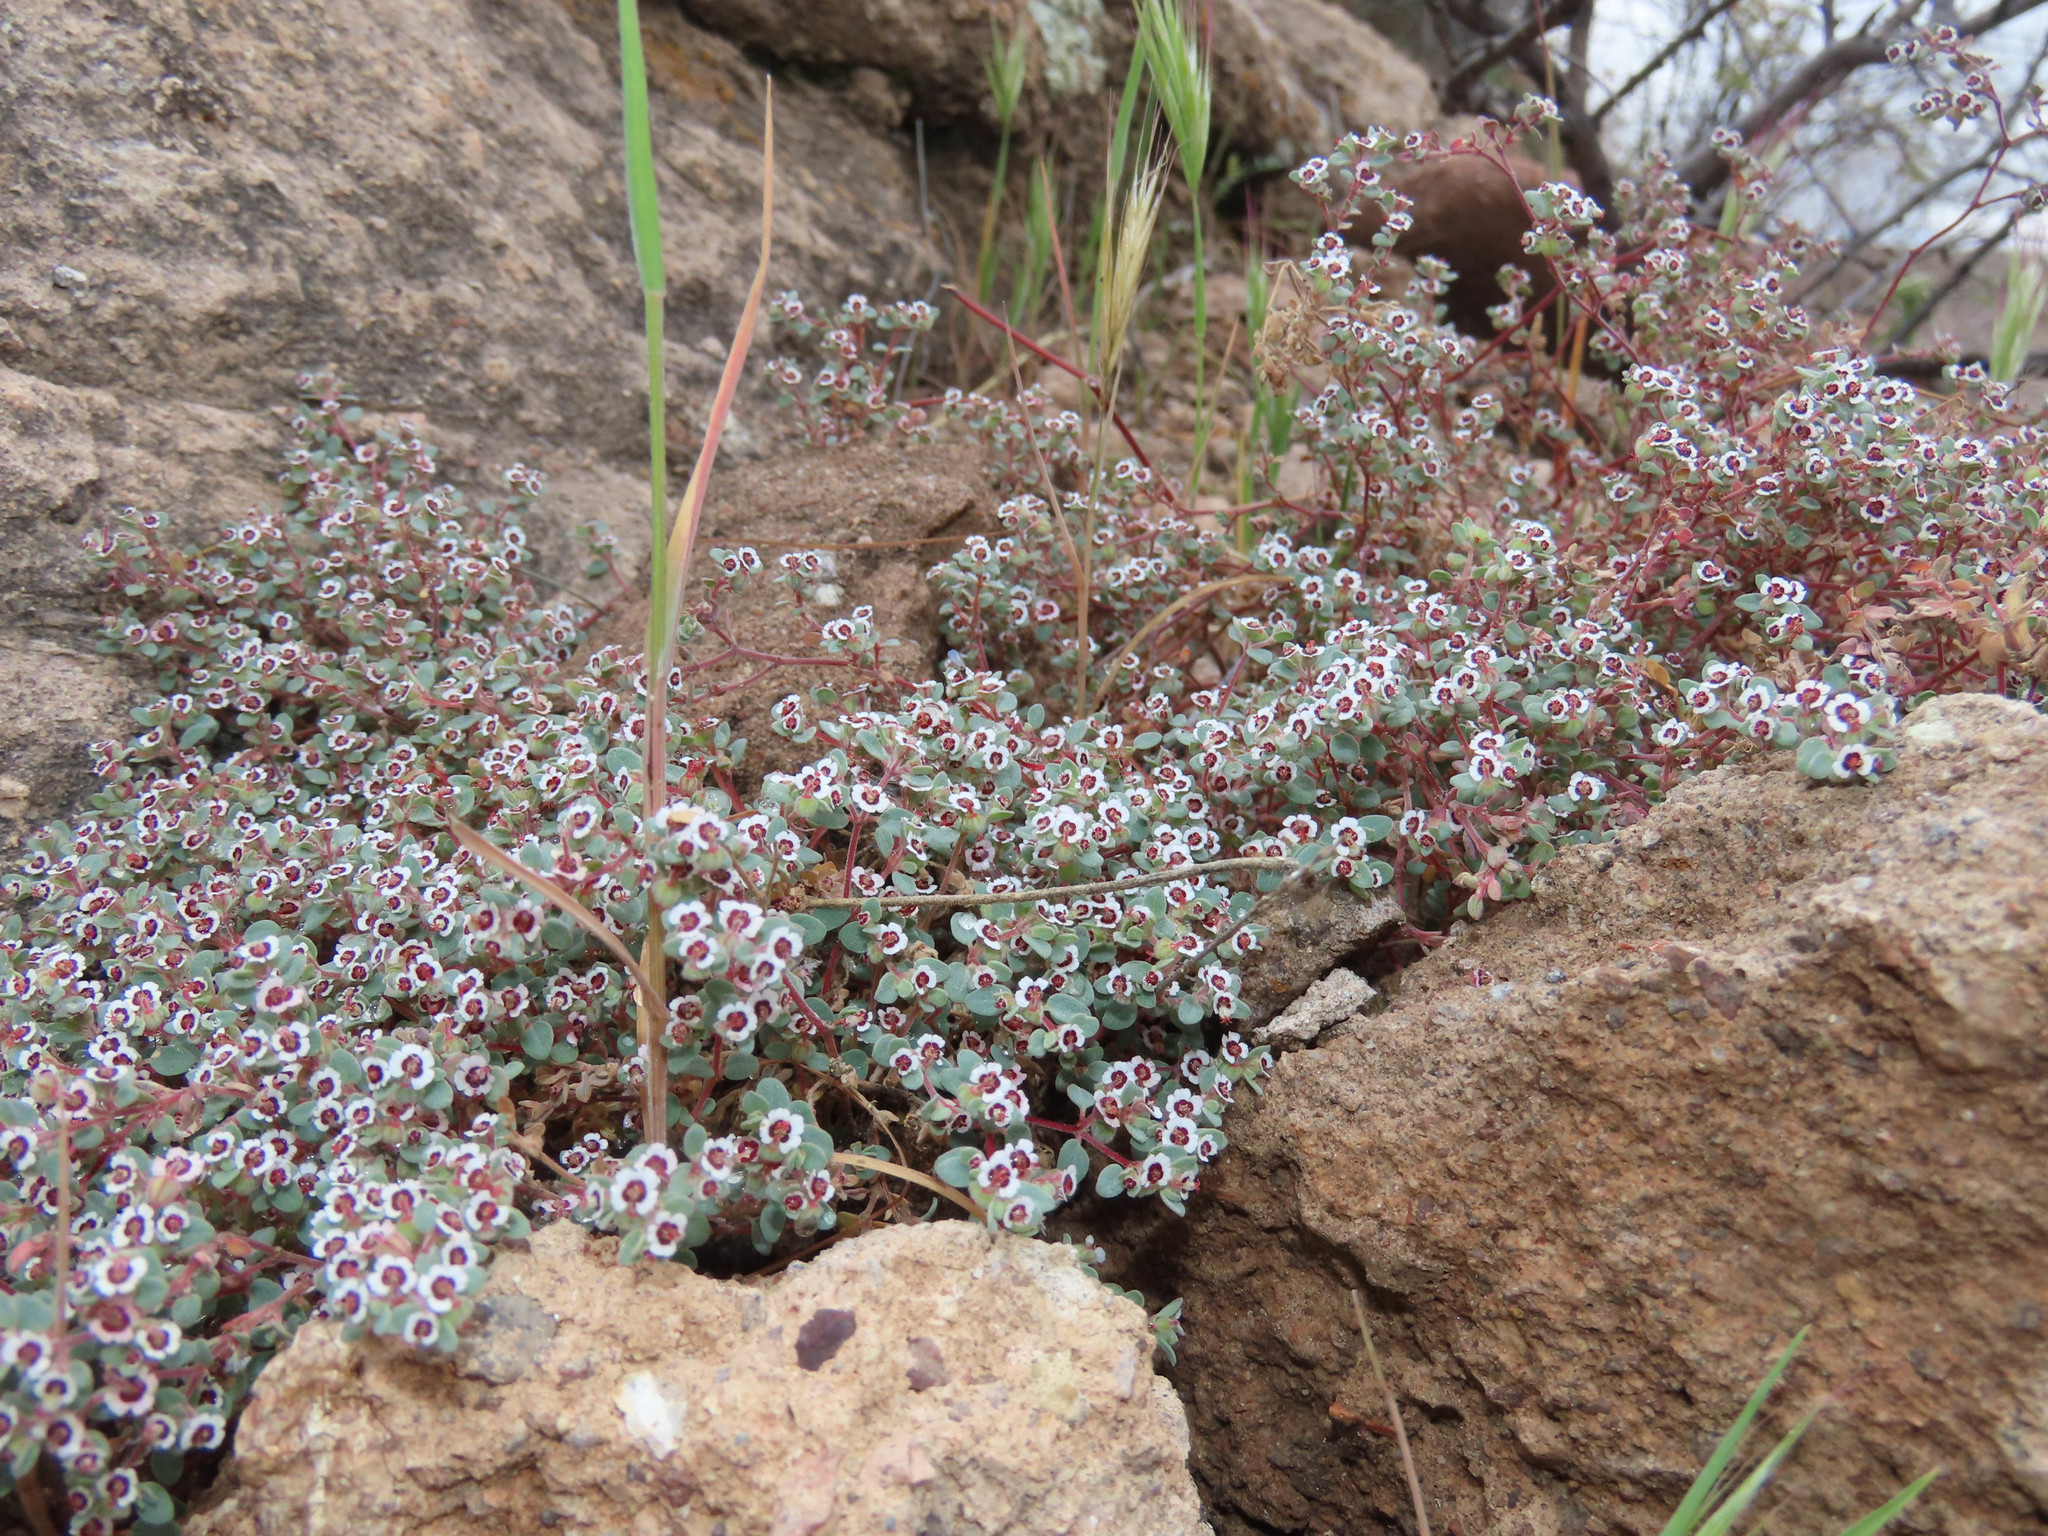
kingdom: Plantae
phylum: Tracheophyta
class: Magnoliopsida
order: Malpighiales
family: Euphorbiaceae
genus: Euphorbia
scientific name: Euphorbia melanadenia
